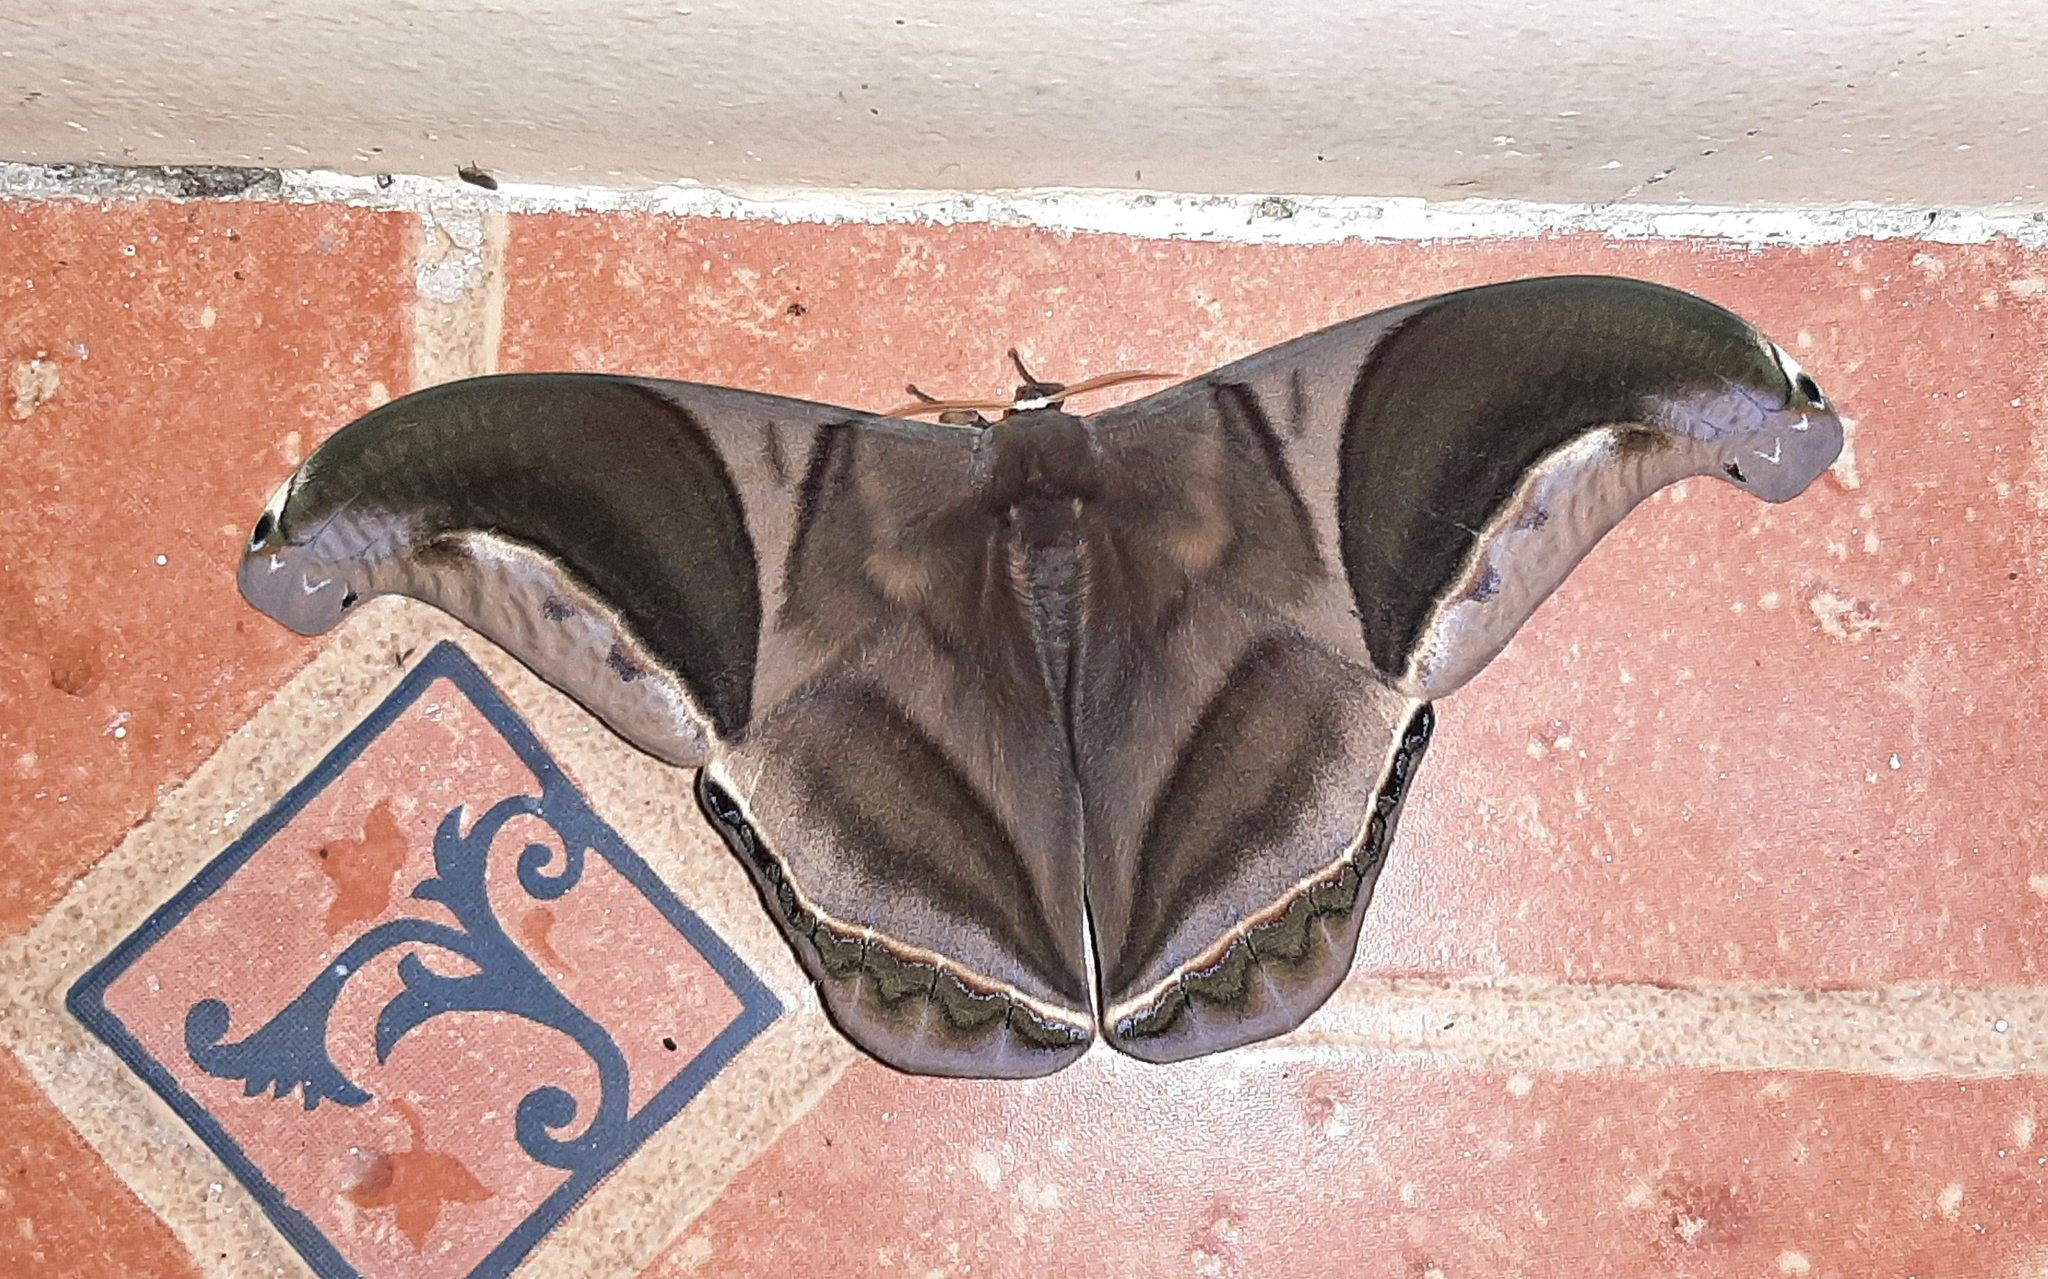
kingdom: Animalia
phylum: Arthropoda
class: Insecta
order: Lepidoptera
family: Saturniidae
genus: Rhescyntis
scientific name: Rhescyntis hippodamia
